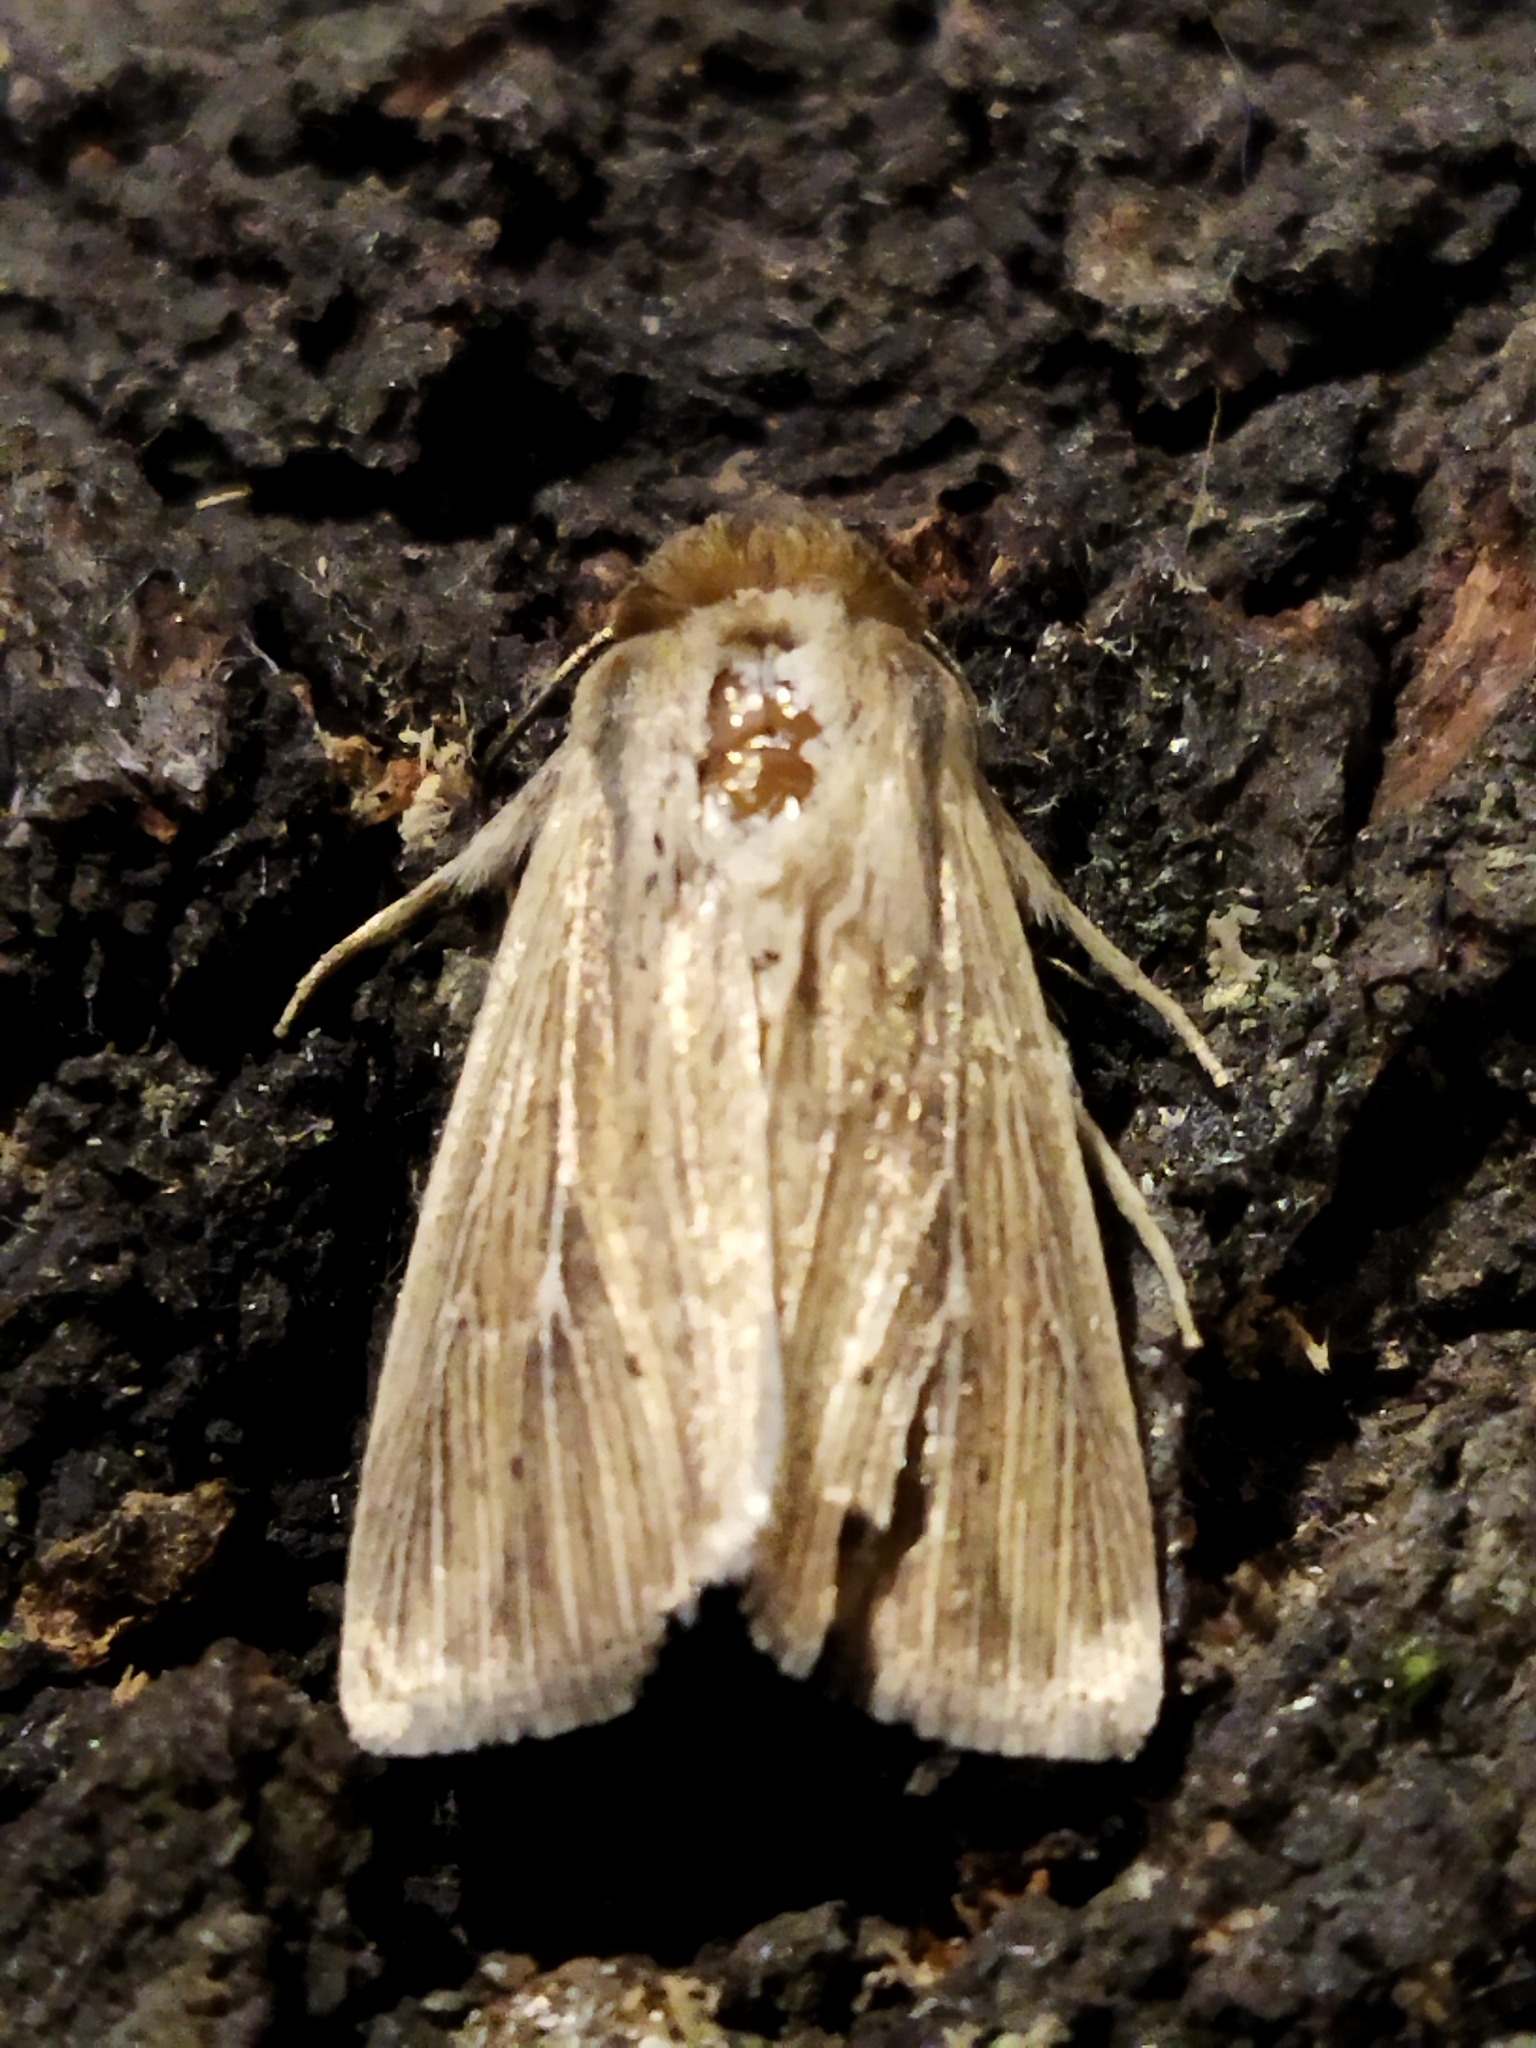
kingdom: Animalia
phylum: Arthropoda
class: Insecta
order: Lepidoptera
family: Noctuidae
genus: Mythimna
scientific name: Mythimna congrua
